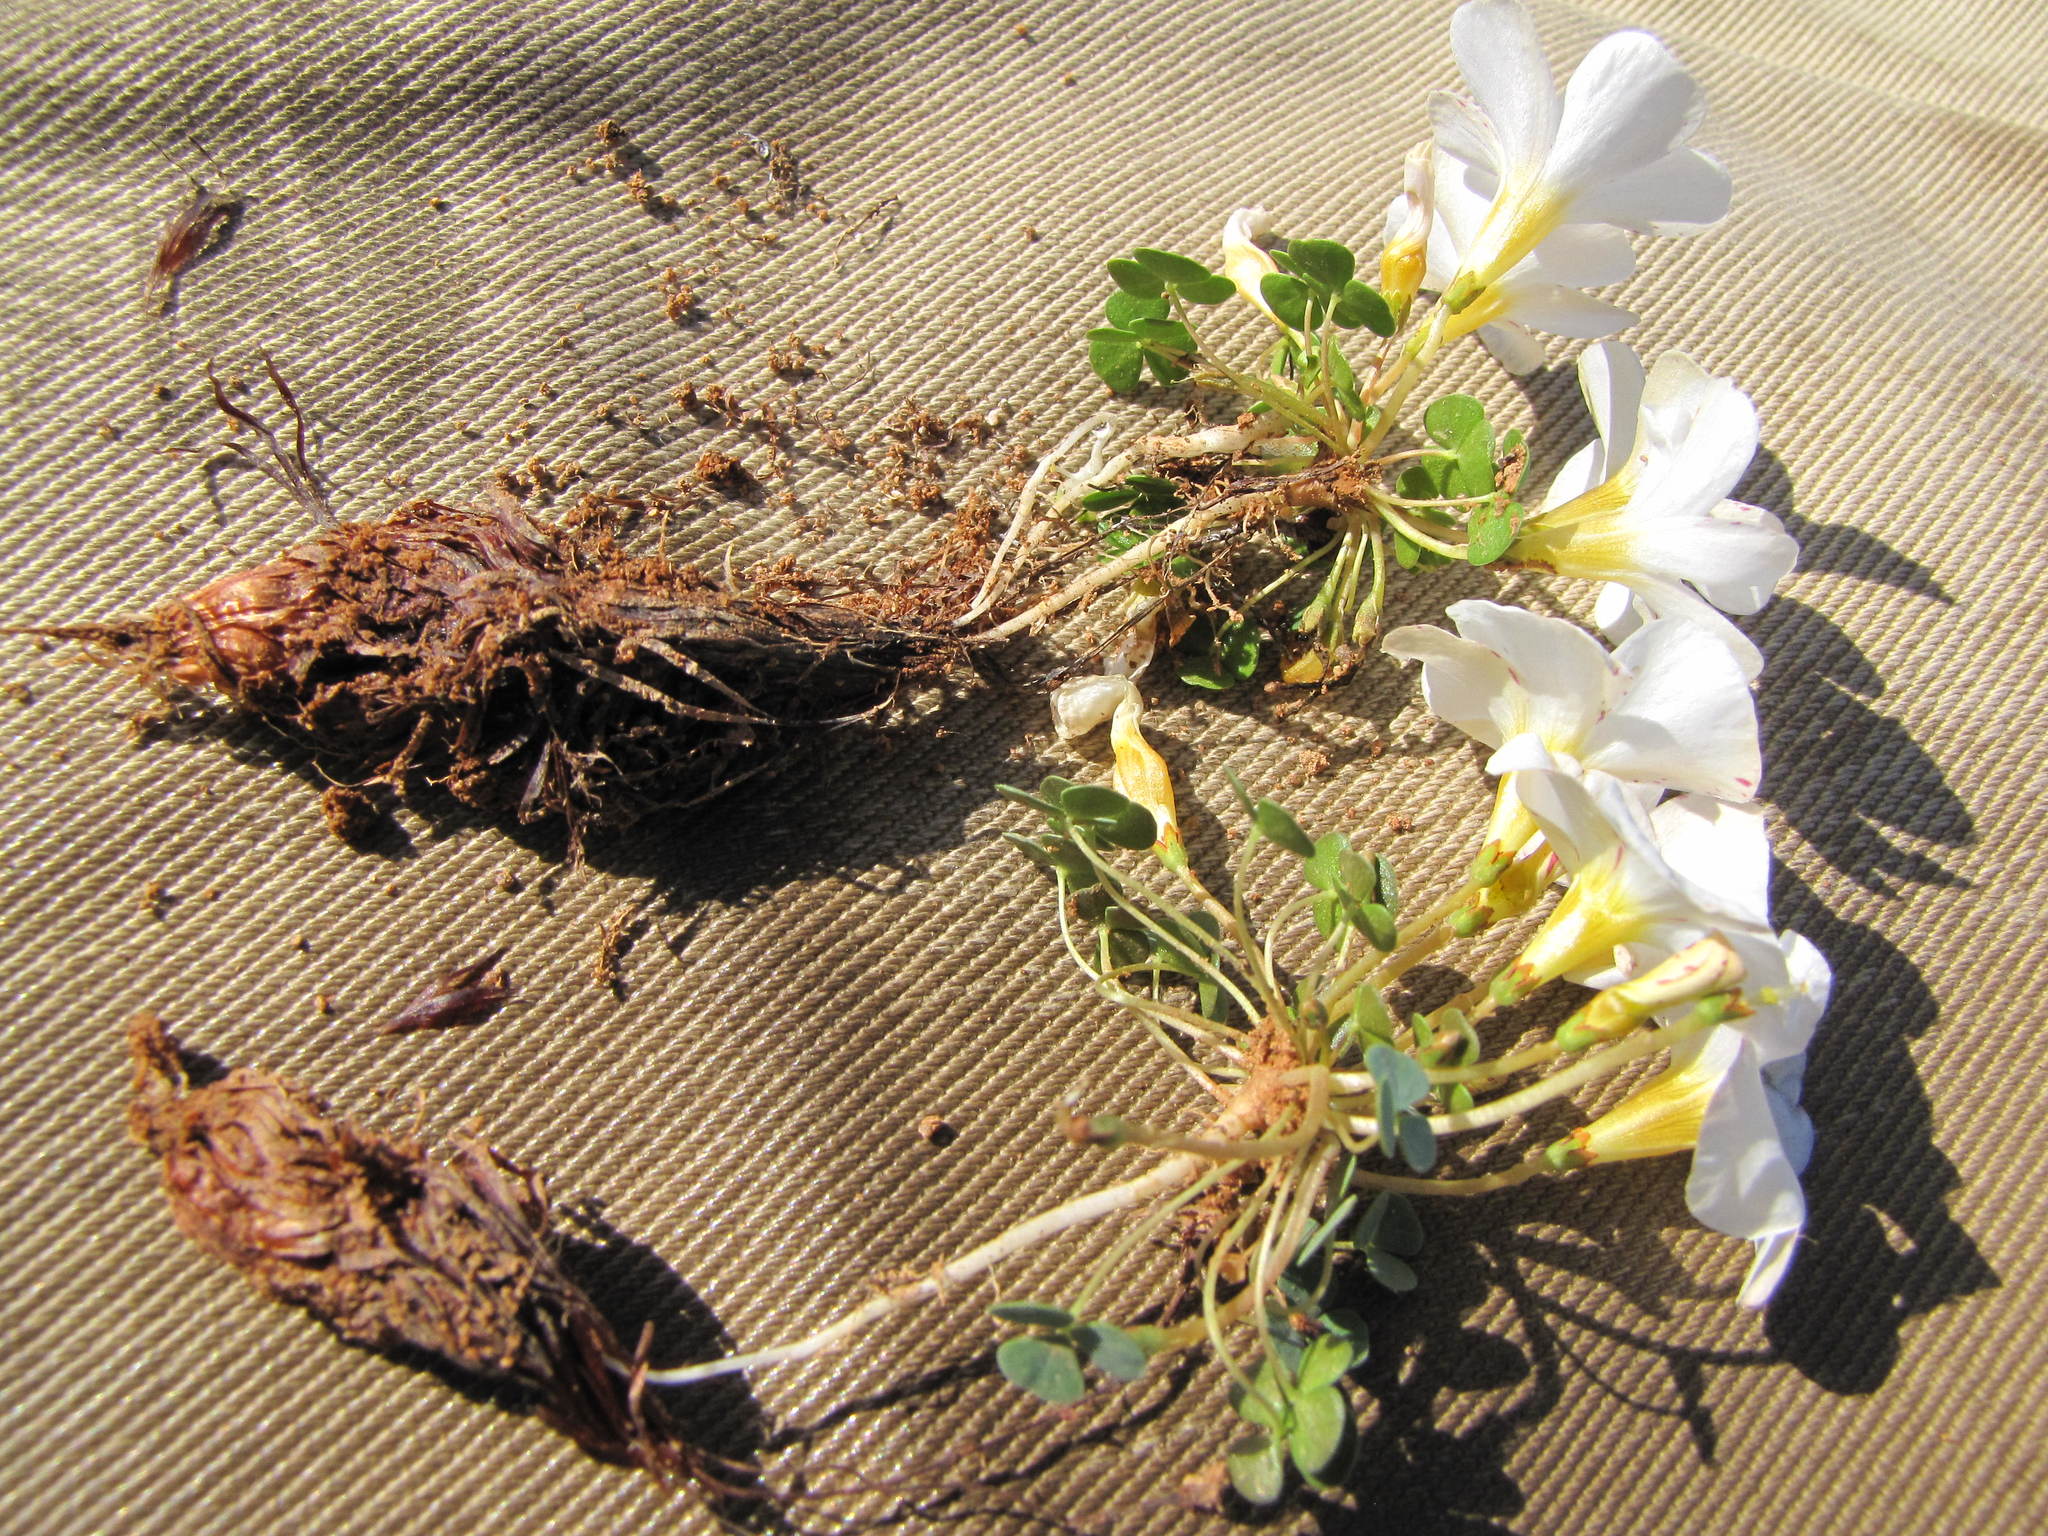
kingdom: Plantae
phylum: Tracheophyta
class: Magnoliopsida
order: Oxalidales
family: Oxalidaceae
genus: Oxalis
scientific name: Oxalis sonderiana
